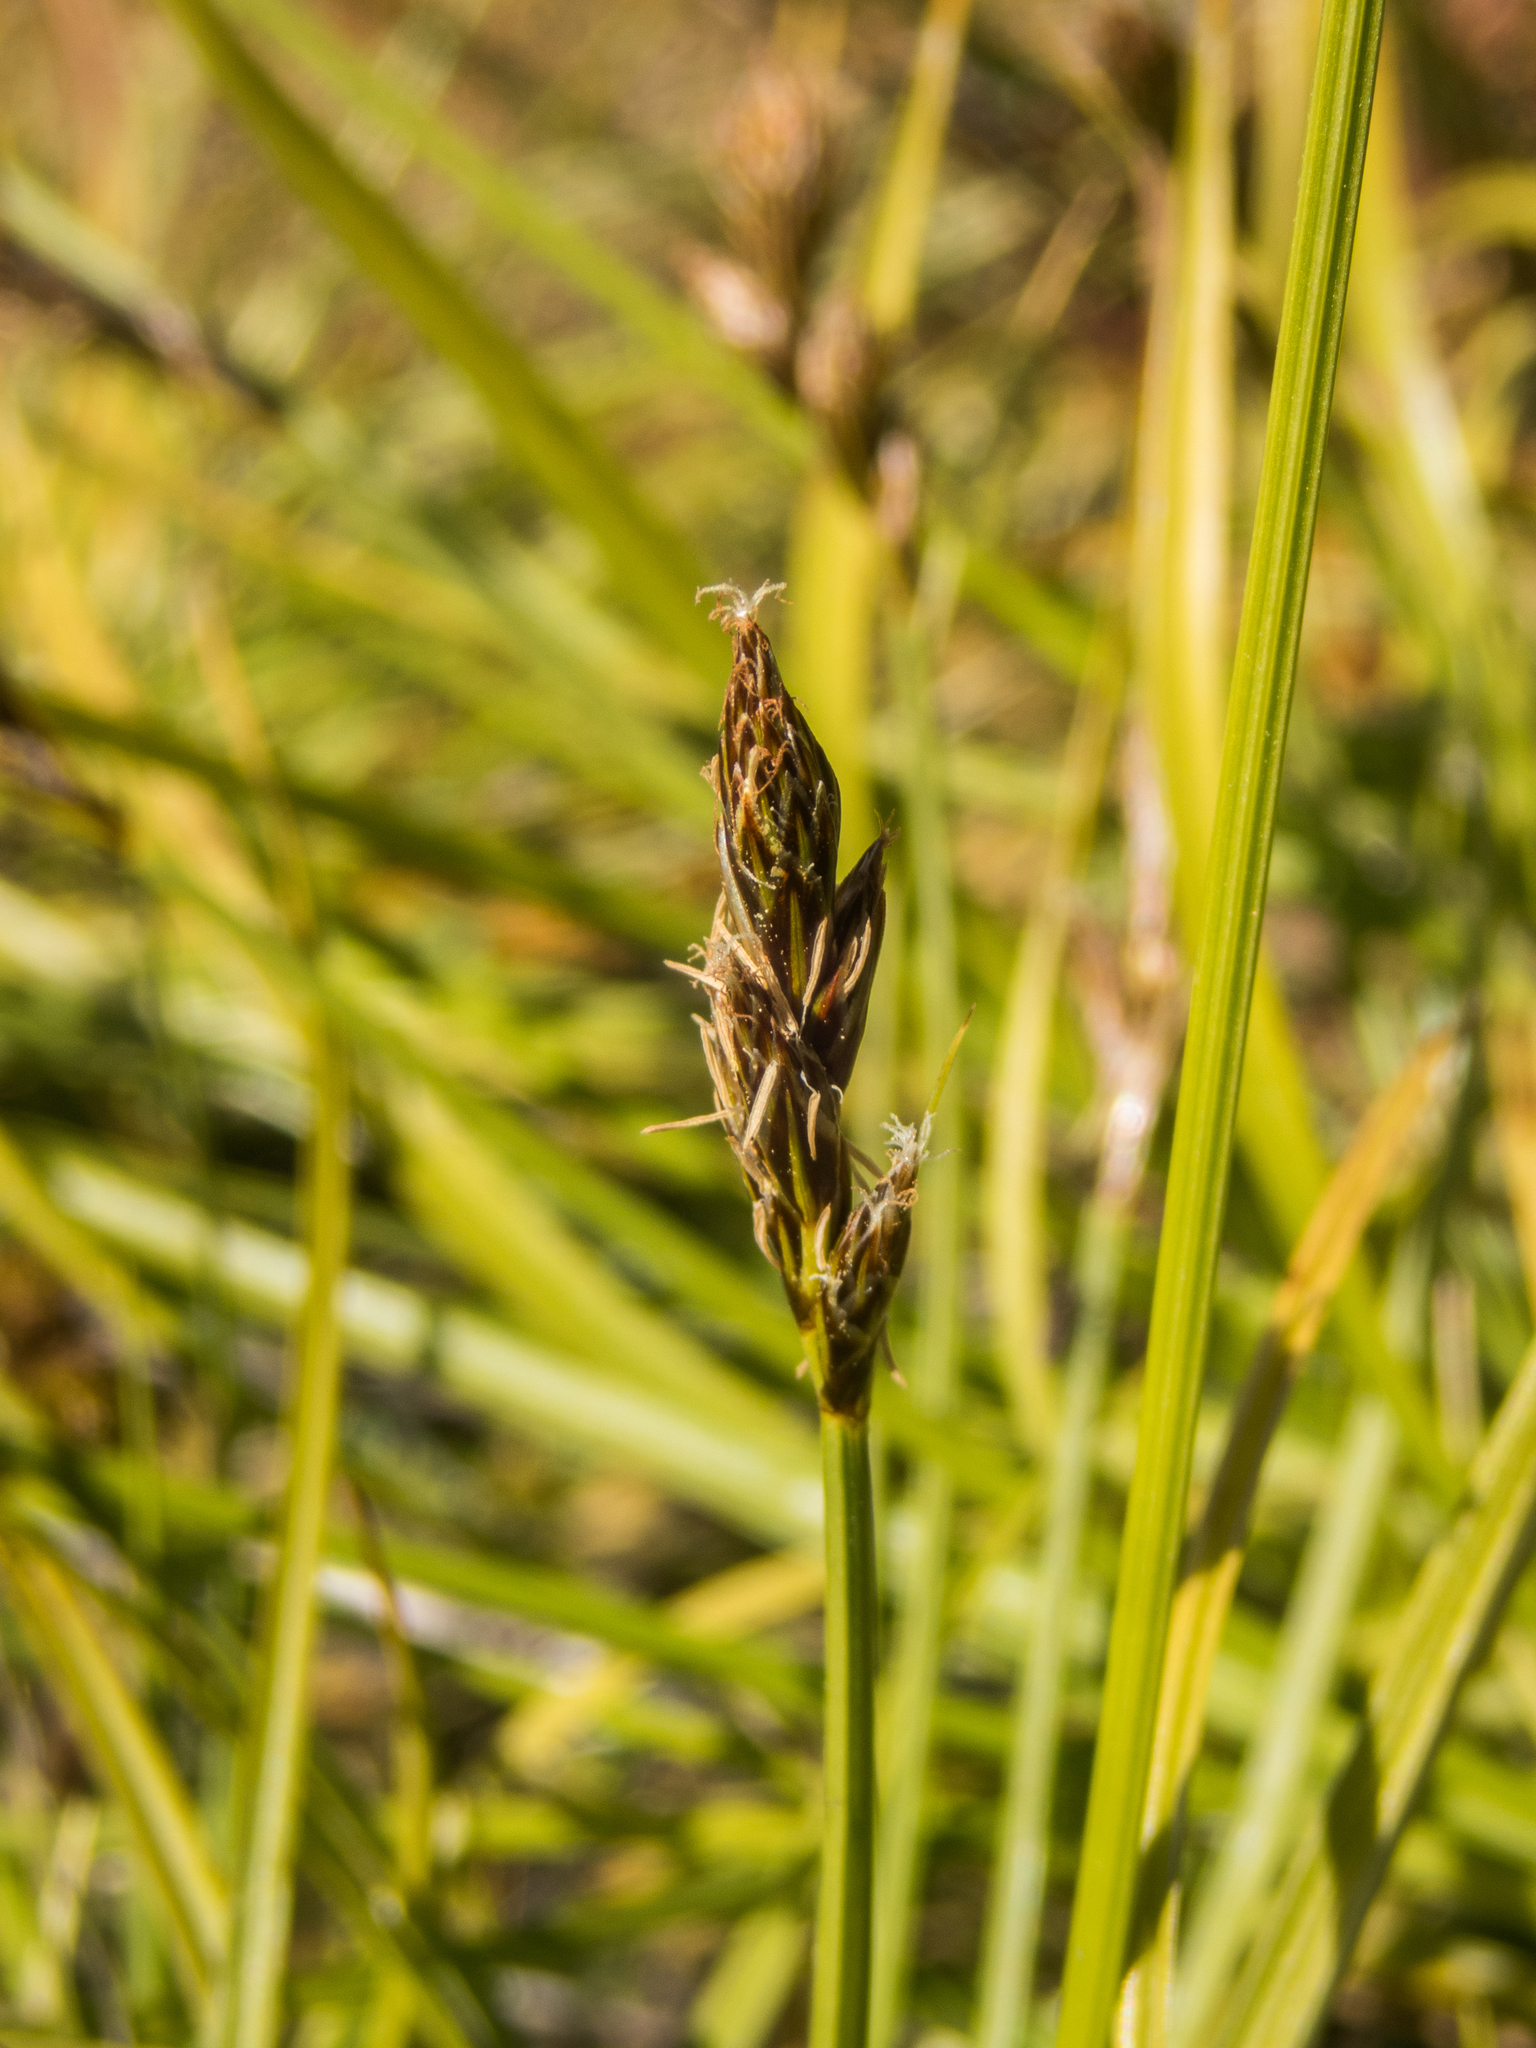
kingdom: Plantae
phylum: Tracheophyta
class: Liliopsida
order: Poales
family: Cyperaceae
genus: Carex
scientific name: Carex leporina
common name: Oval sedge
